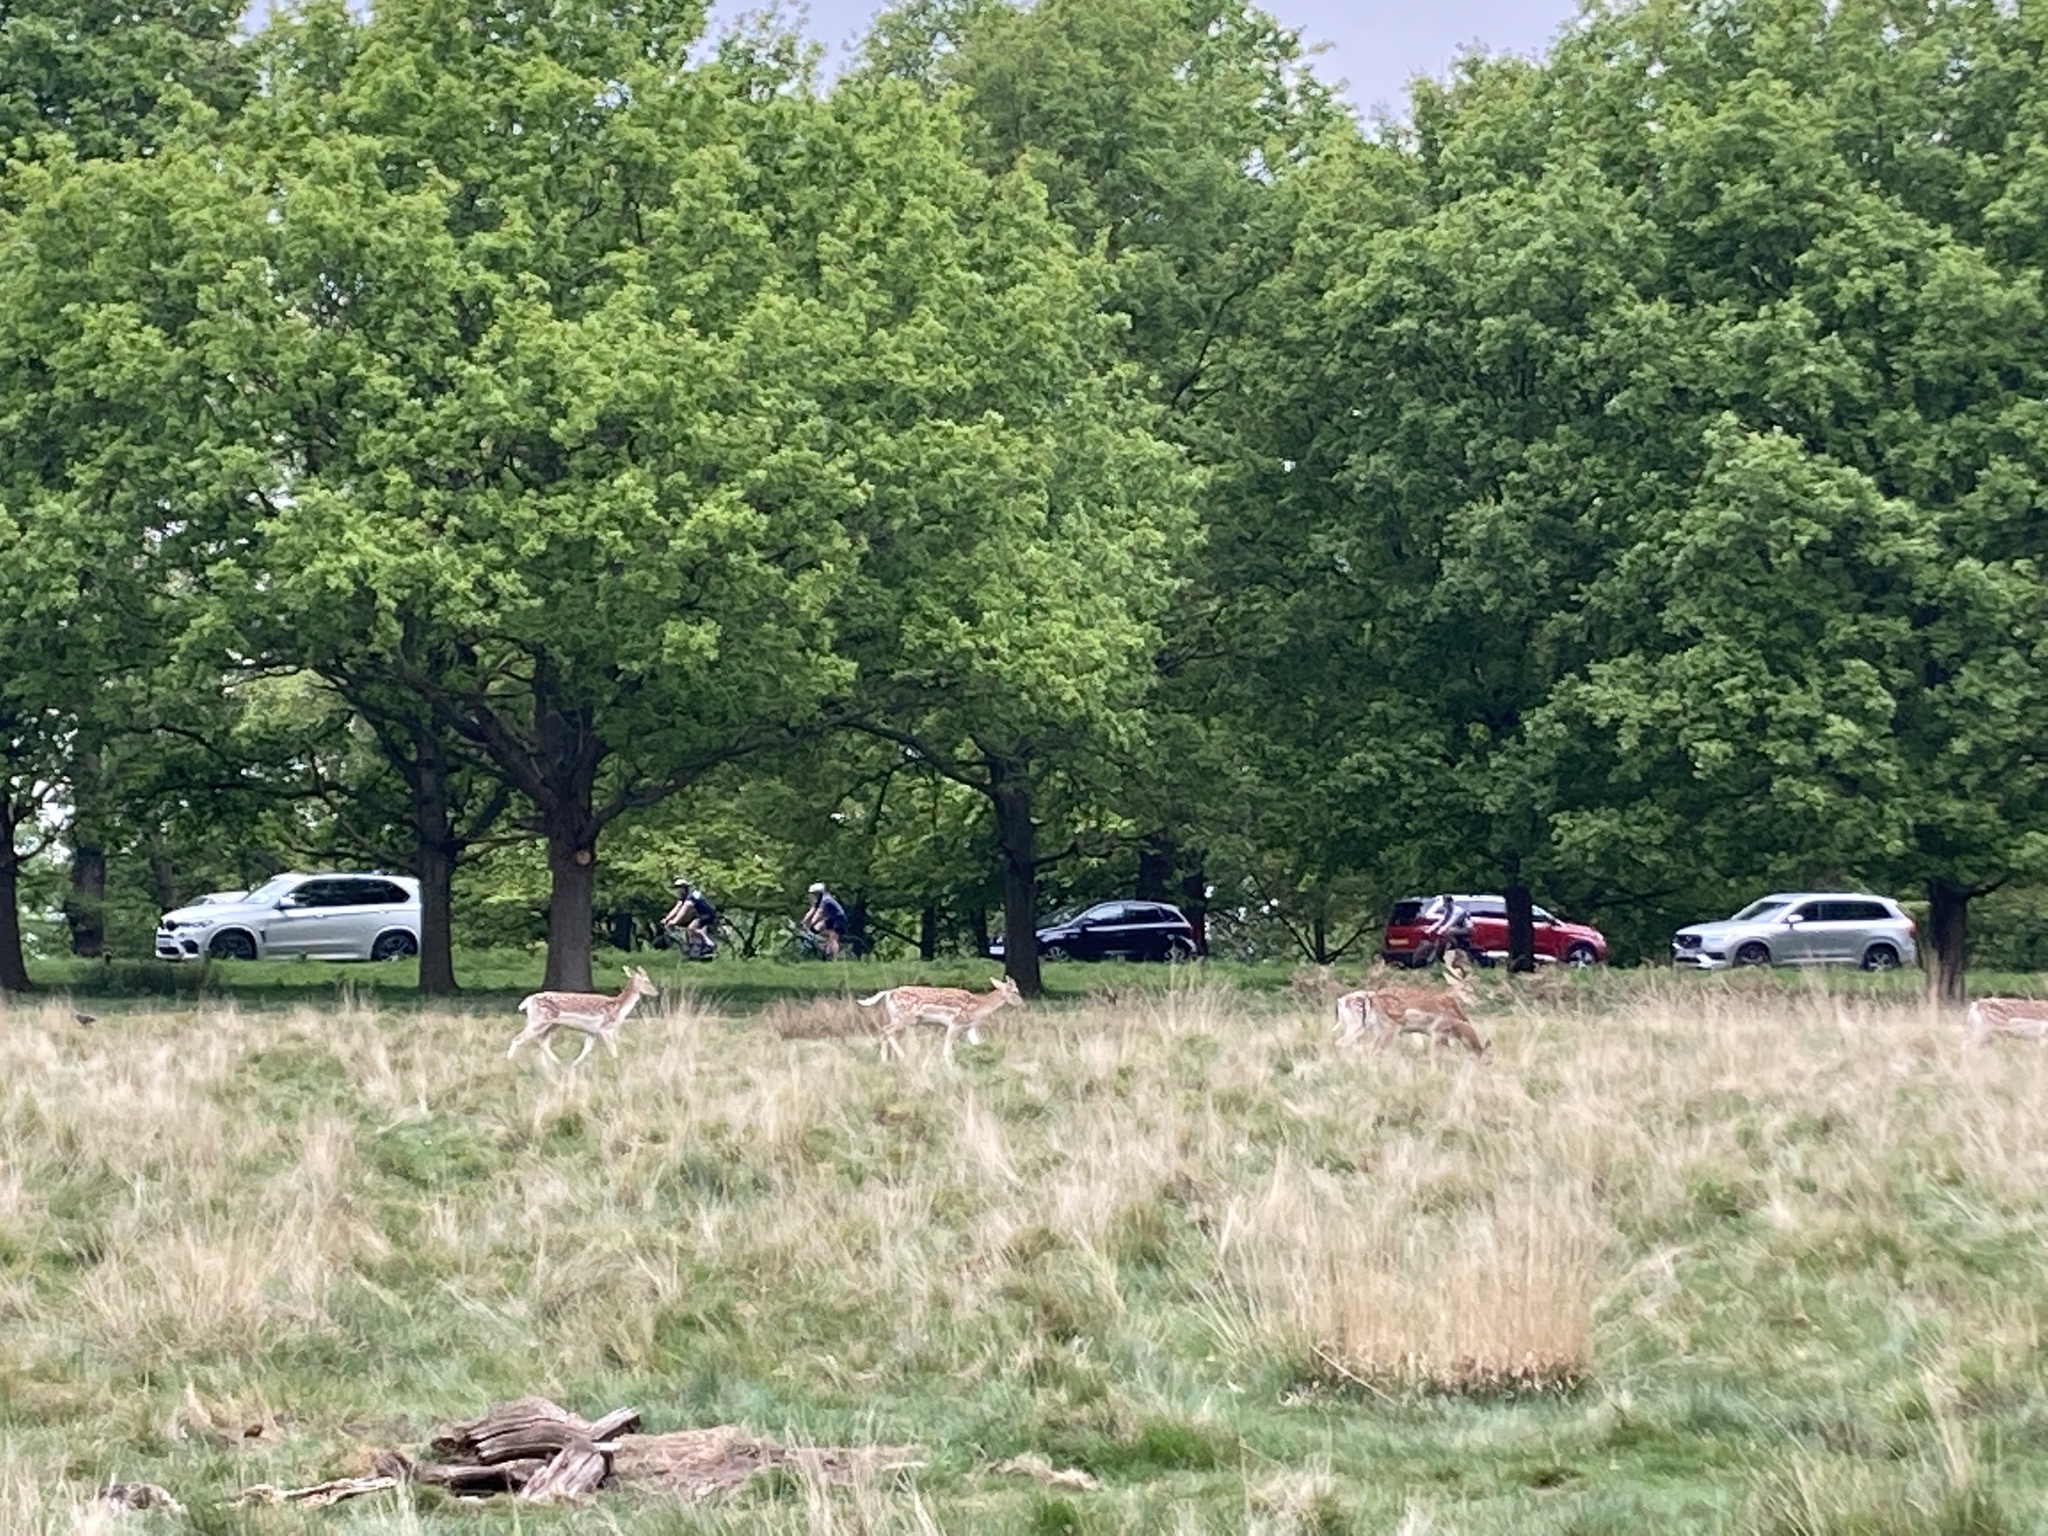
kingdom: Animalia
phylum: Chordata
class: Mammalia
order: Artiodactyla
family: Cervidae
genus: Dama
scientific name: Dama dama
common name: Fallow deer
